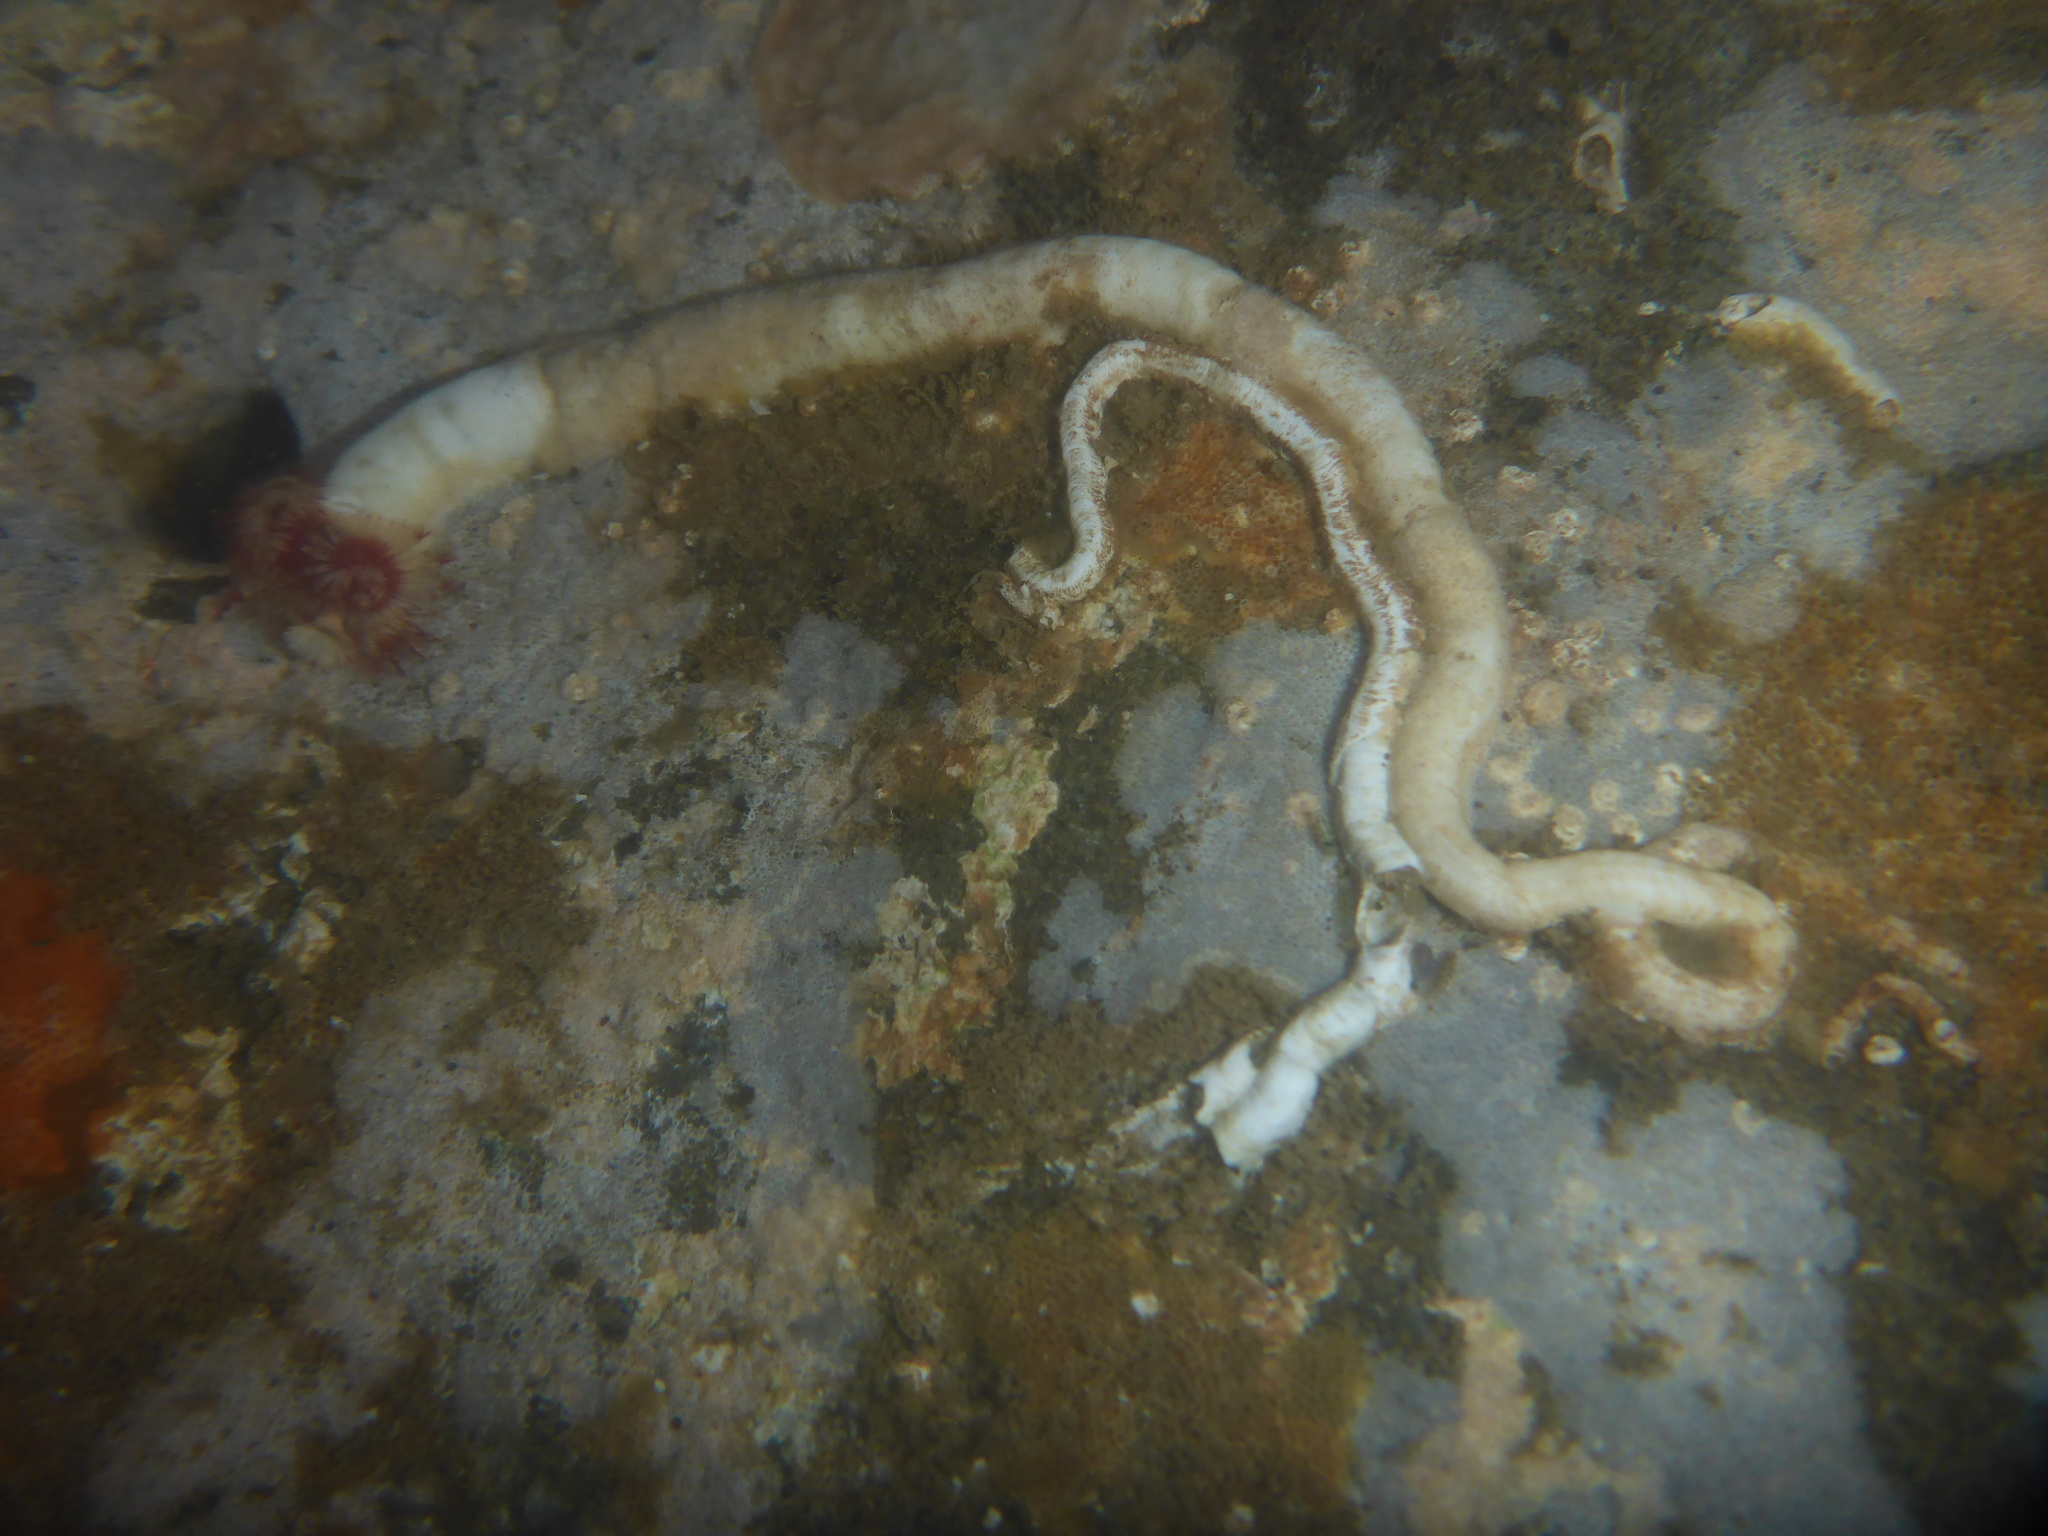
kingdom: Animalia
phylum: Annelida
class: Polychaeta
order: Sabellida
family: Serpulidae
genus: Serpula
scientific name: Serpula columbiana
